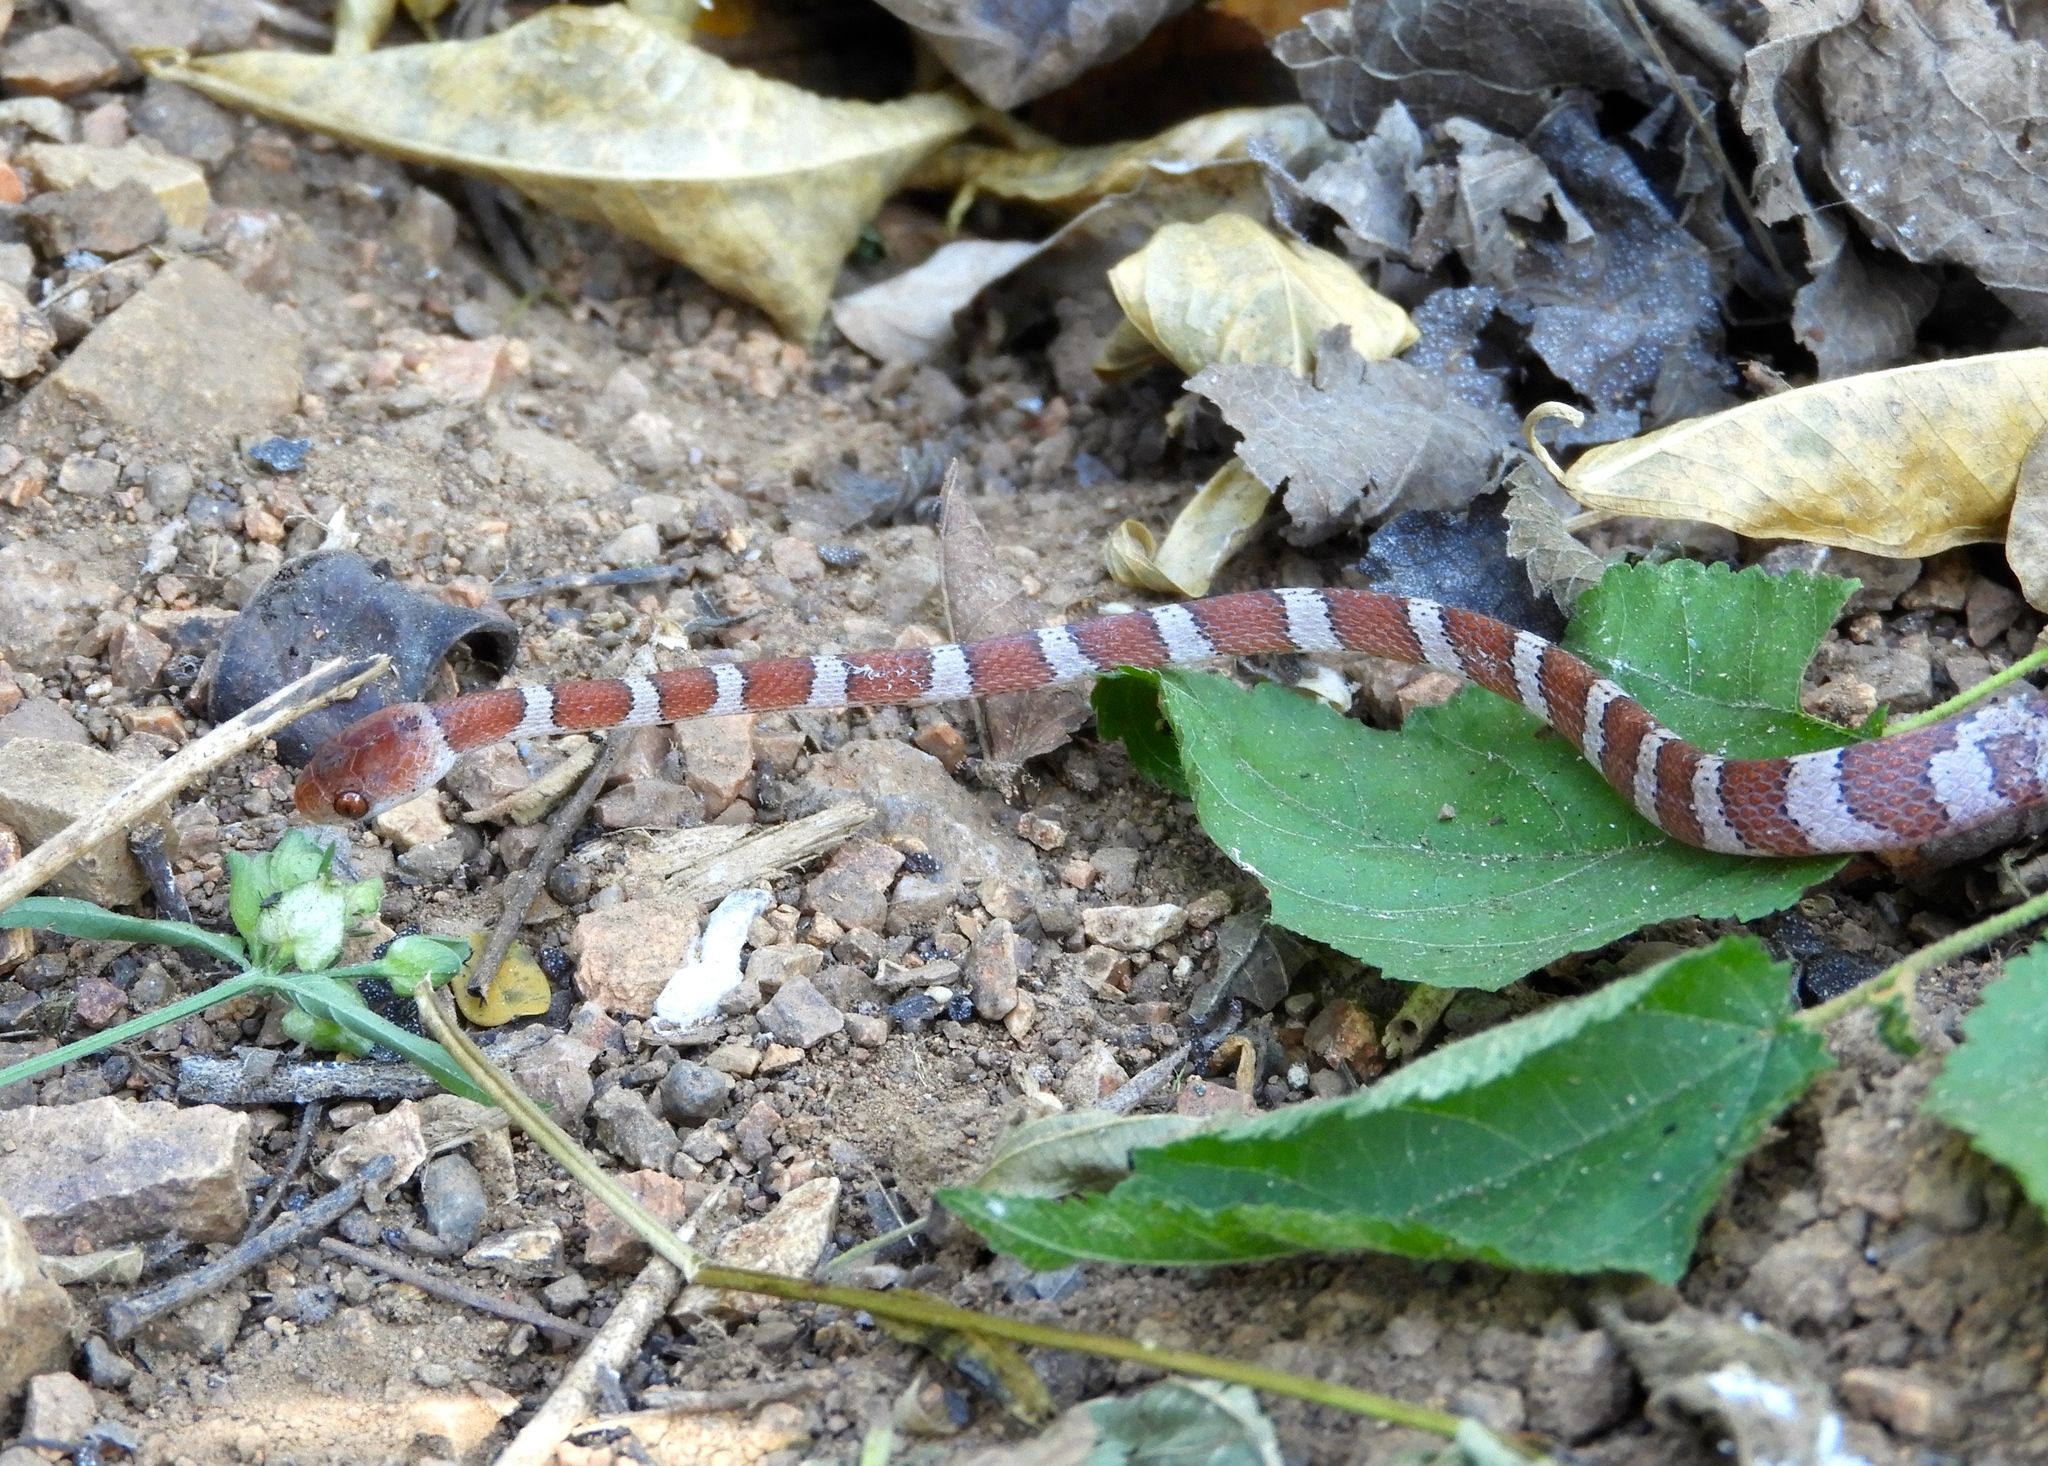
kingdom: Animalia
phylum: Chordata
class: Squamata
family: Colubridae
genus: Imantodes
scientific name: Imantodes gemmistratus
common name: Central american tree snake
